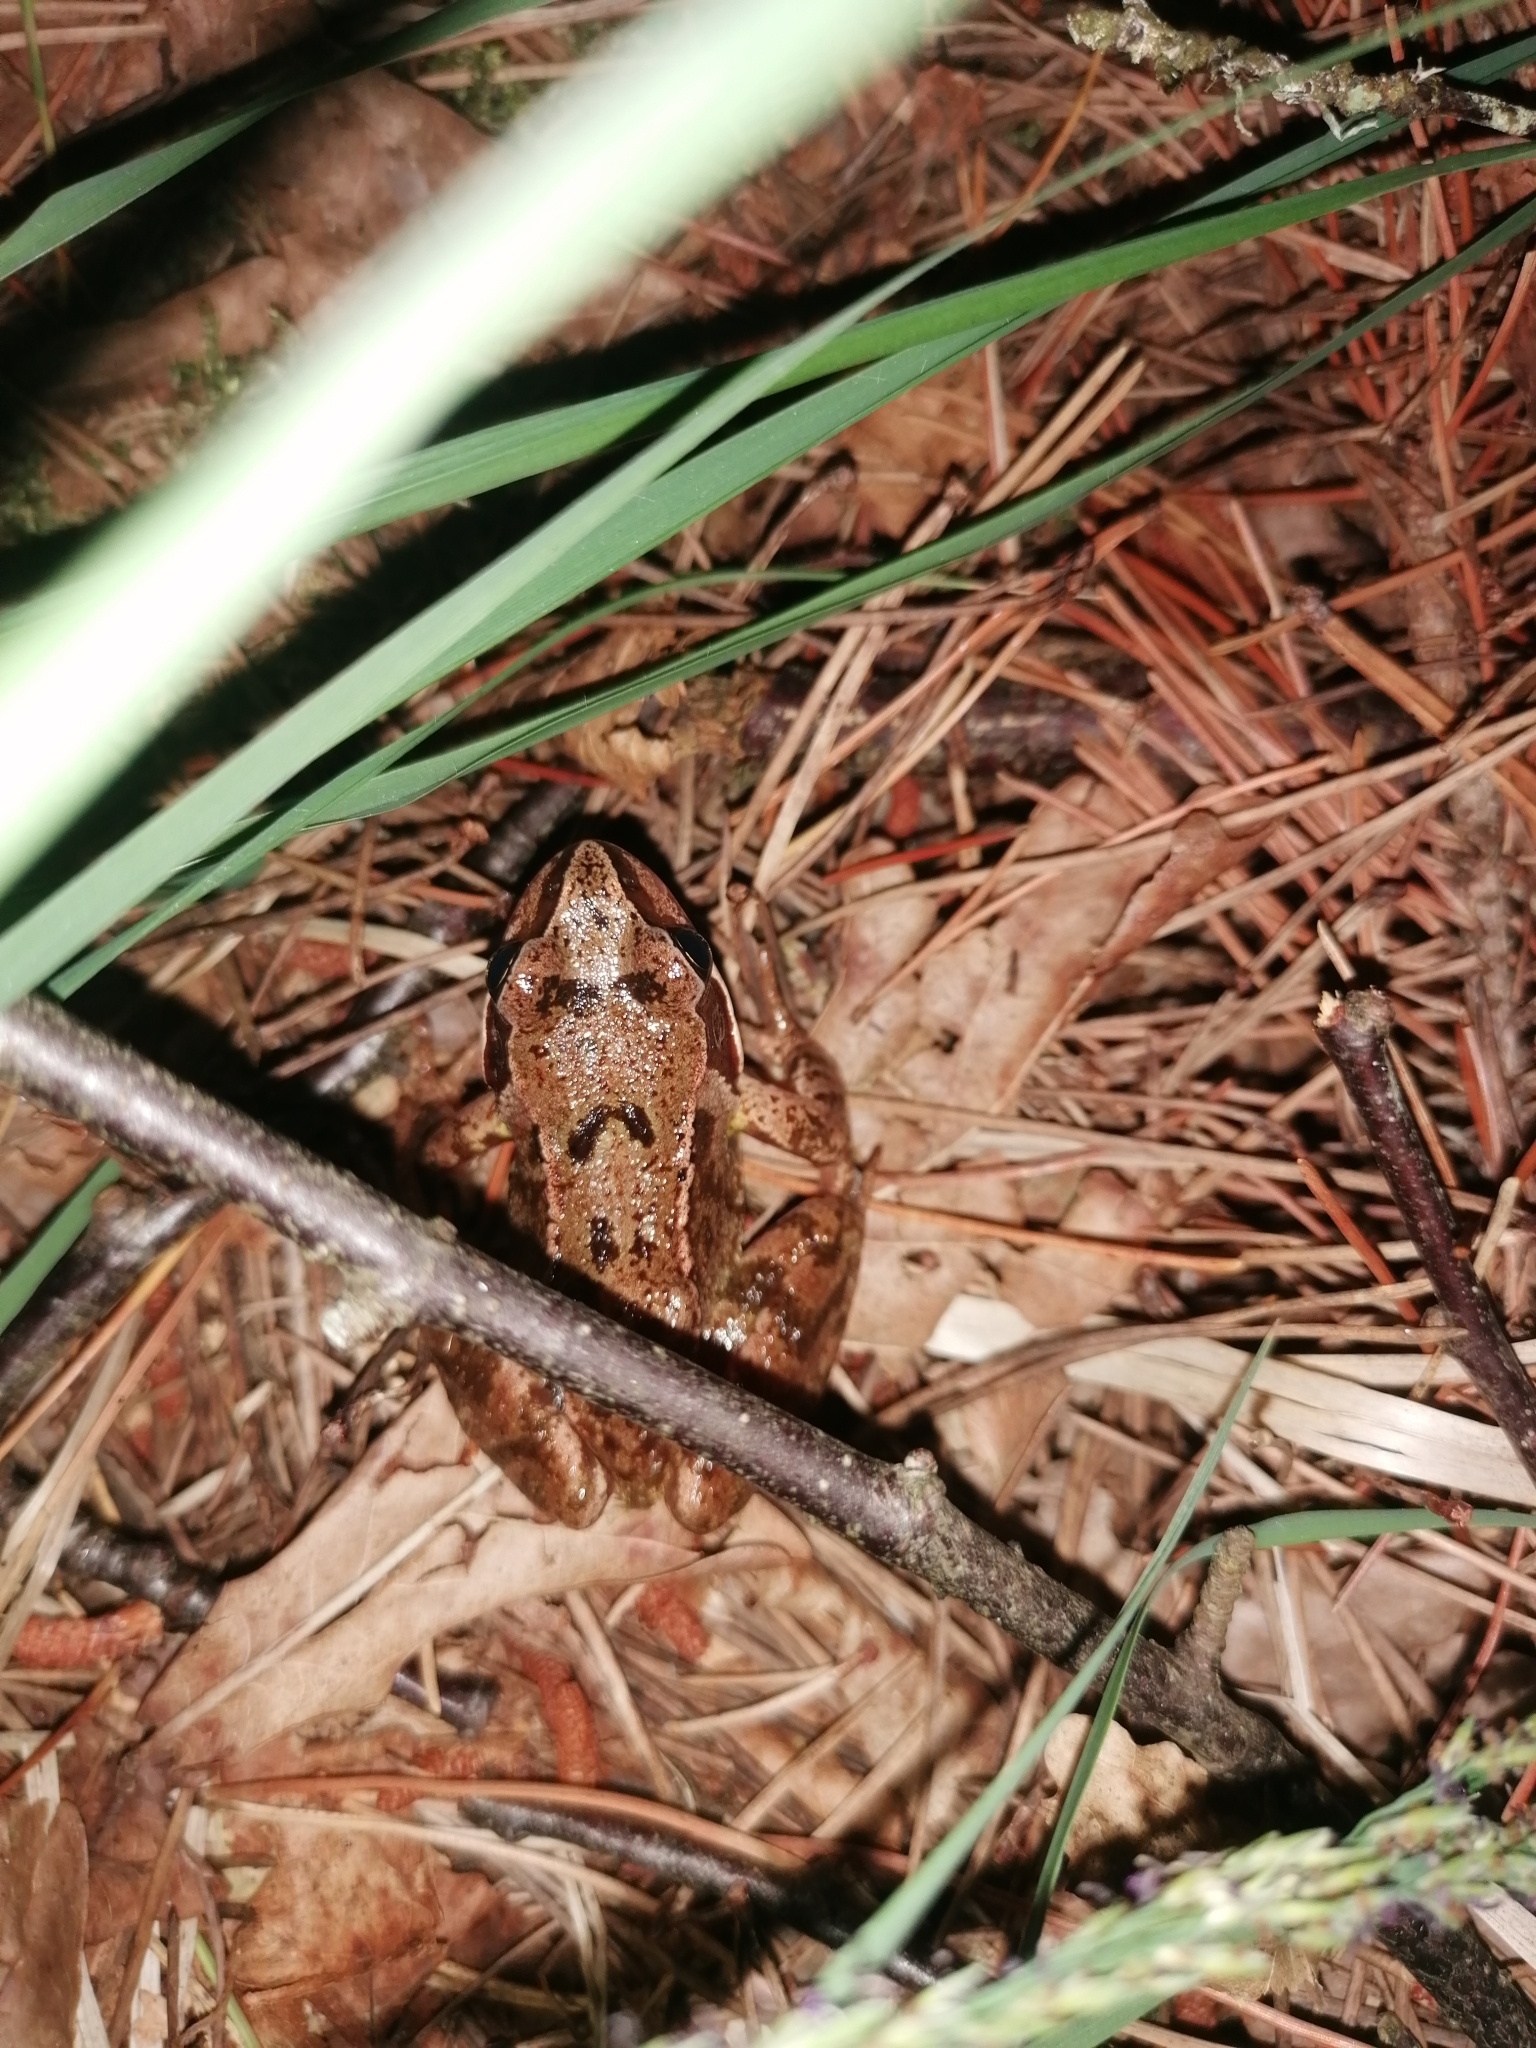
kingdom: Animalia
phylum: Chordata
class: Amphibia
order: Anura
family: Ranidae
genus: Rana
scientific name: Rana temporaria
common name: Common frog
